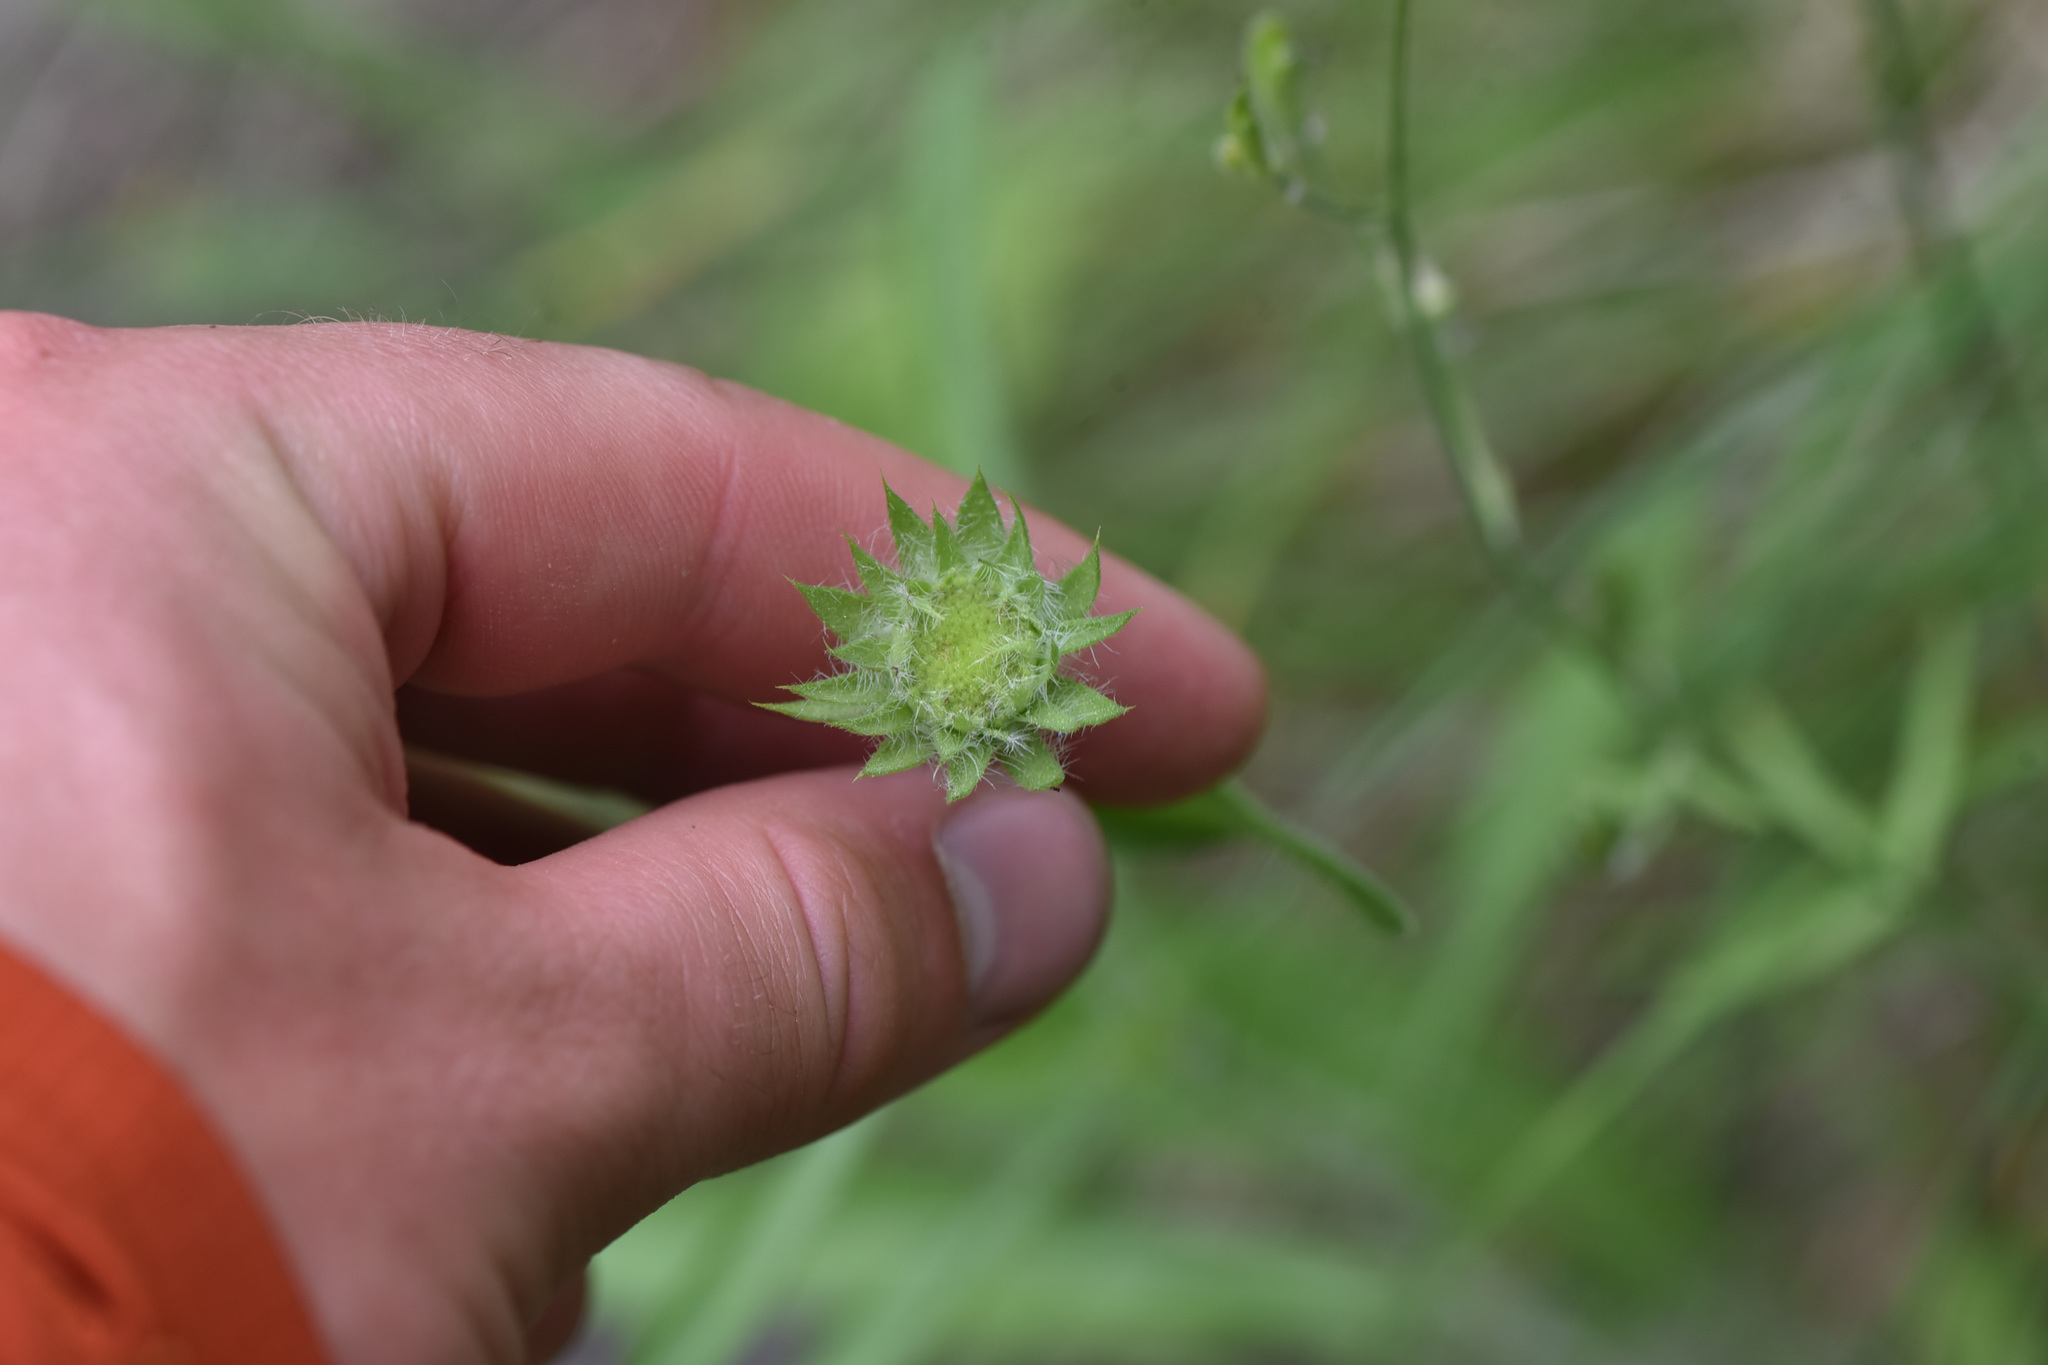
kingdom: Plantae
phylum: Tracheophyta
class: Magnoliopsida
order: Asterales
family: Asteraceae
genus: Gaillardia
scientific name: Gaillardia aristata
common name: Blanket-flower
